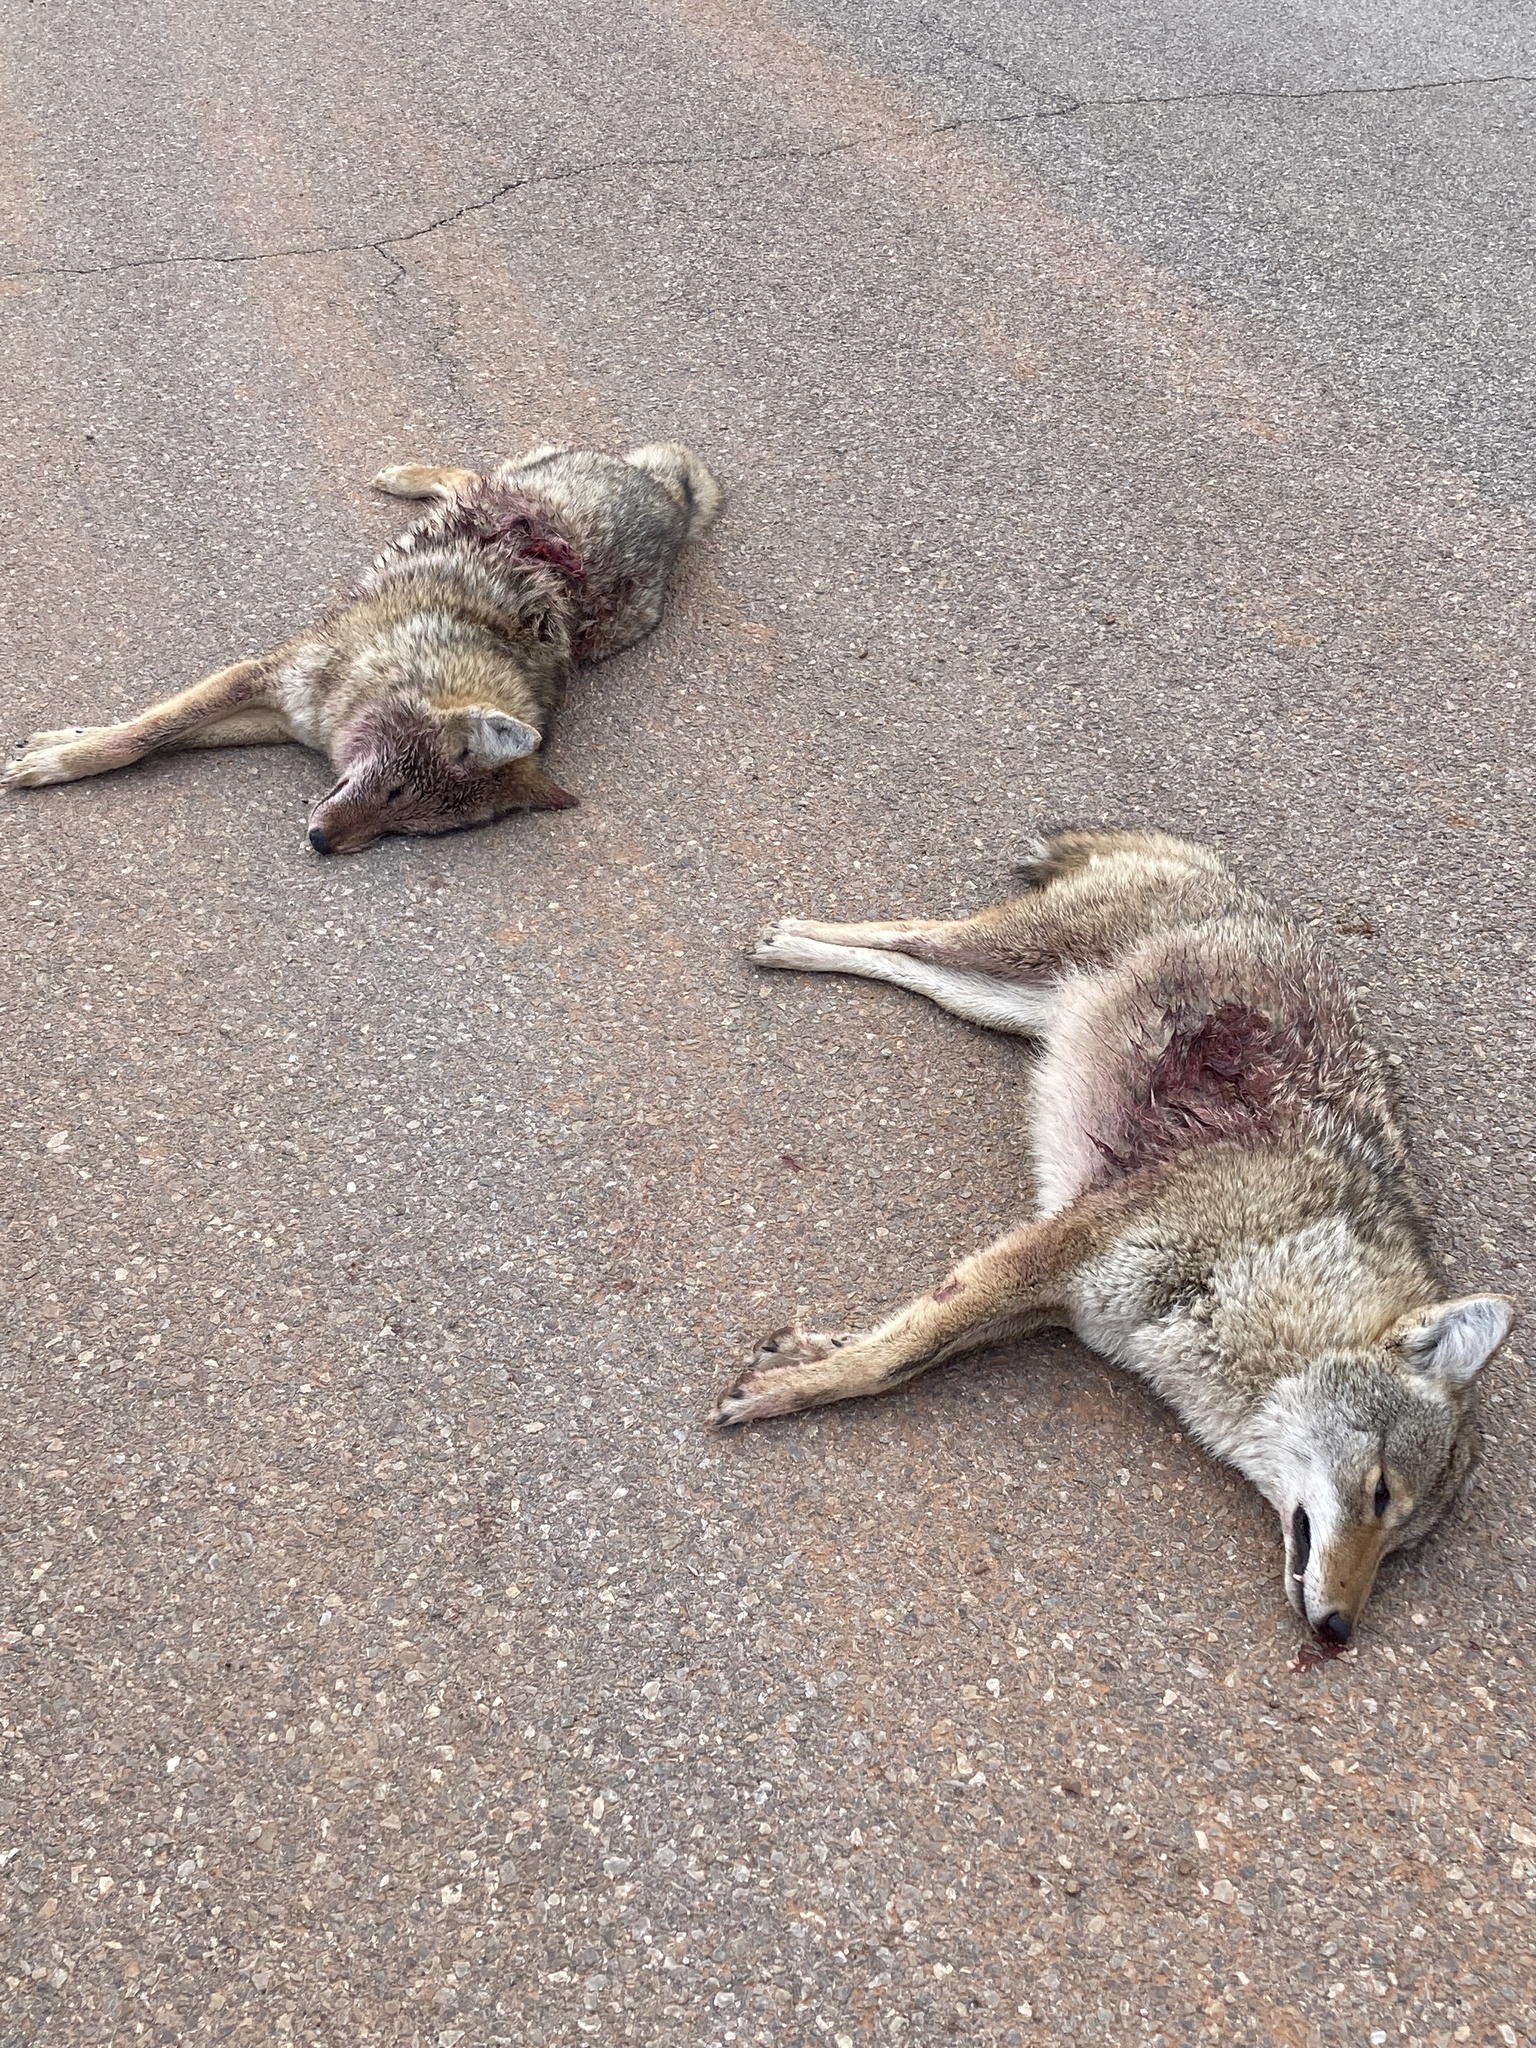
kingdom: Animalia
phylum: Chordata
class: Mammalia
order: Carnivora
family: Canidae
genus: Canis
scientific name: Canis latrans
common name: Coyote
